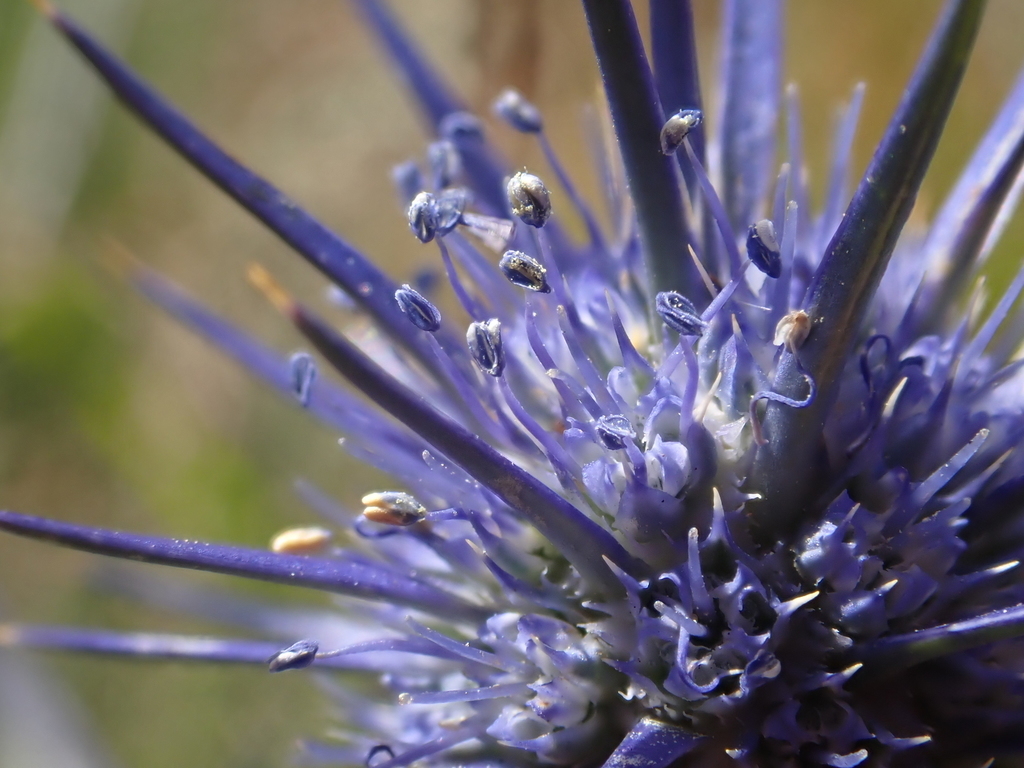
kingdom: Plantae
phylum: Tracheophyta
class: Magnoliopsida
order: Apiales
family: Apiaceae
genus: Eryngium
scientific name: Eryngium ovinum
